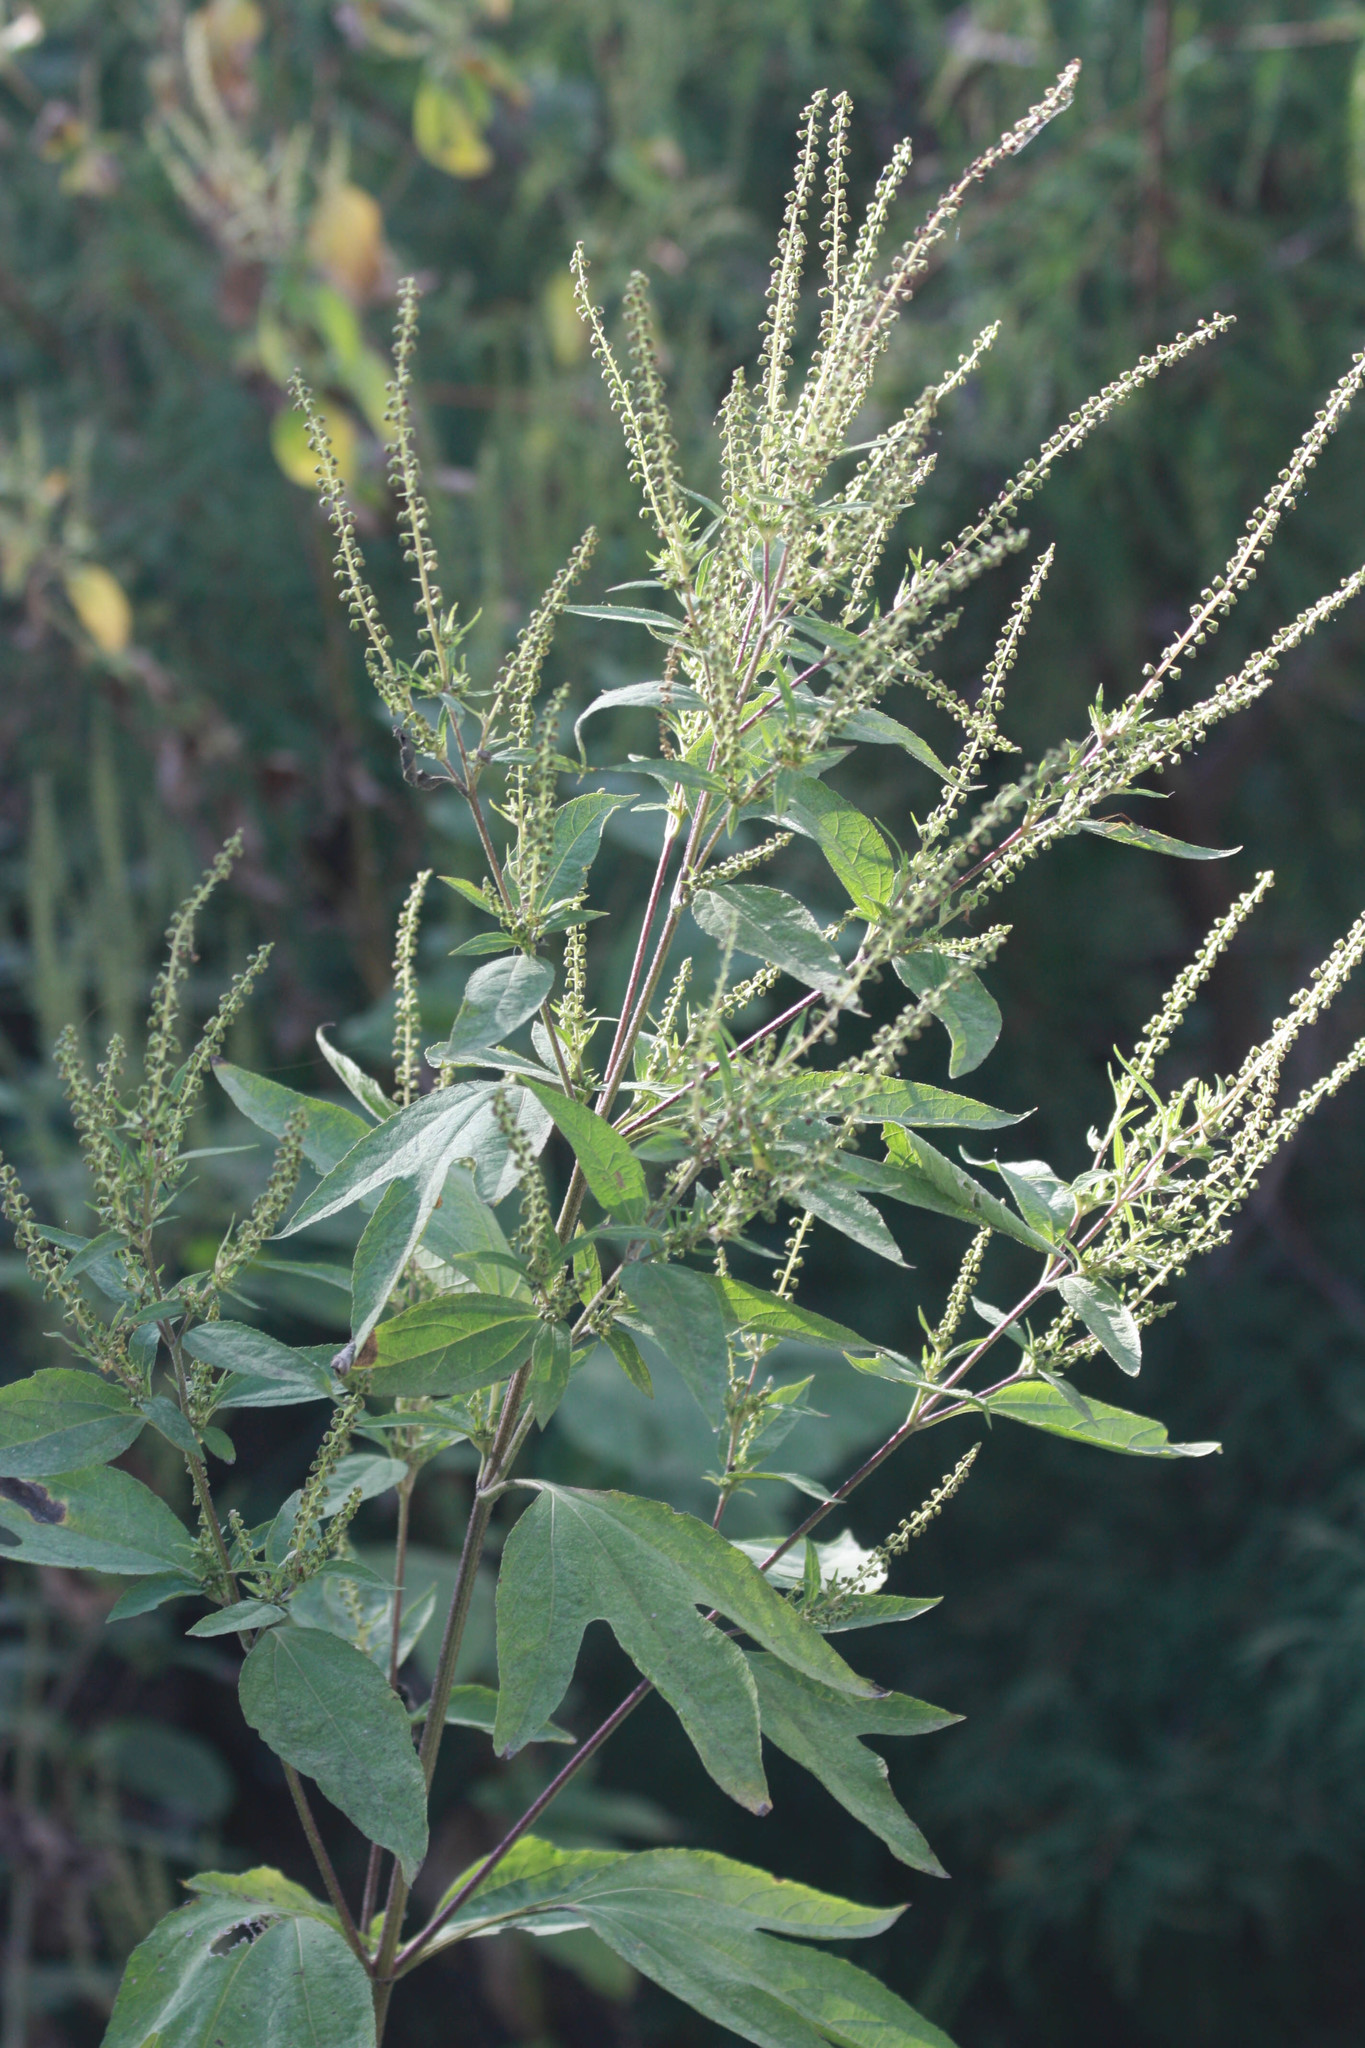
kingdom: Plantae
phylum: Tracheophyta
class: Magnoliopsida
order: Asterales
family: Asteraceae
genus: Ambrosia
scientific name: Ambrosia trifida
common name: Giant ragweed
